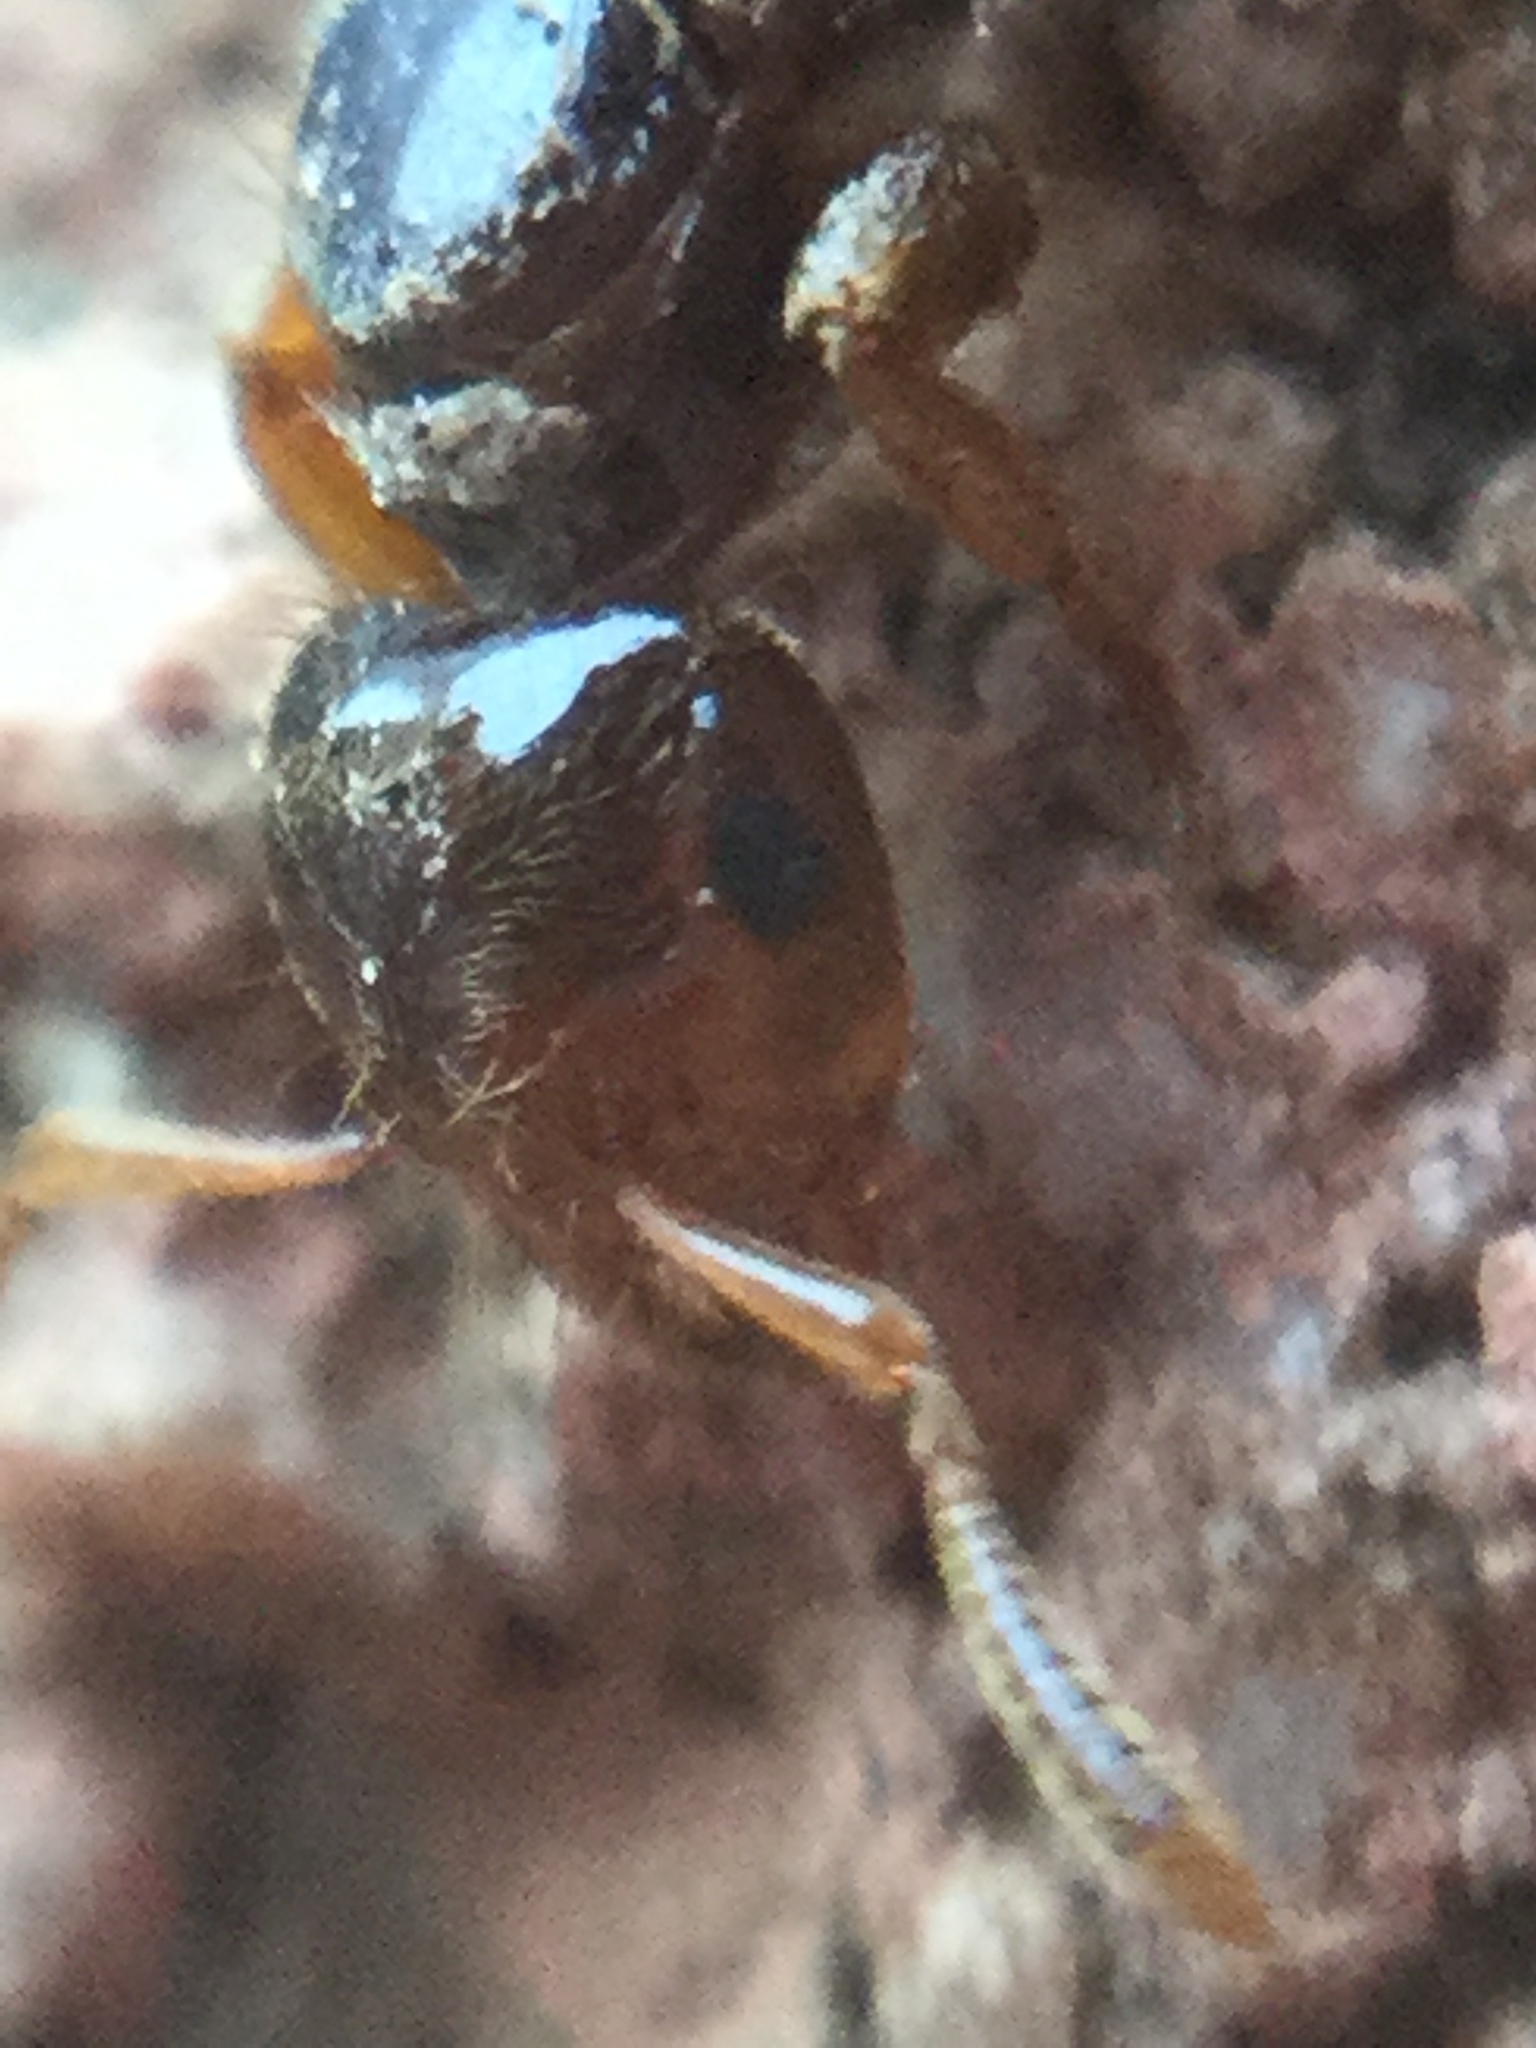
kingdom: Animalia
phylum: Arthropoda
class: Insecta
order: Hymenoptera
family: Formicidae
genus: Lasius
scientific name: Lasius claviger
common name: Common citronella ant
